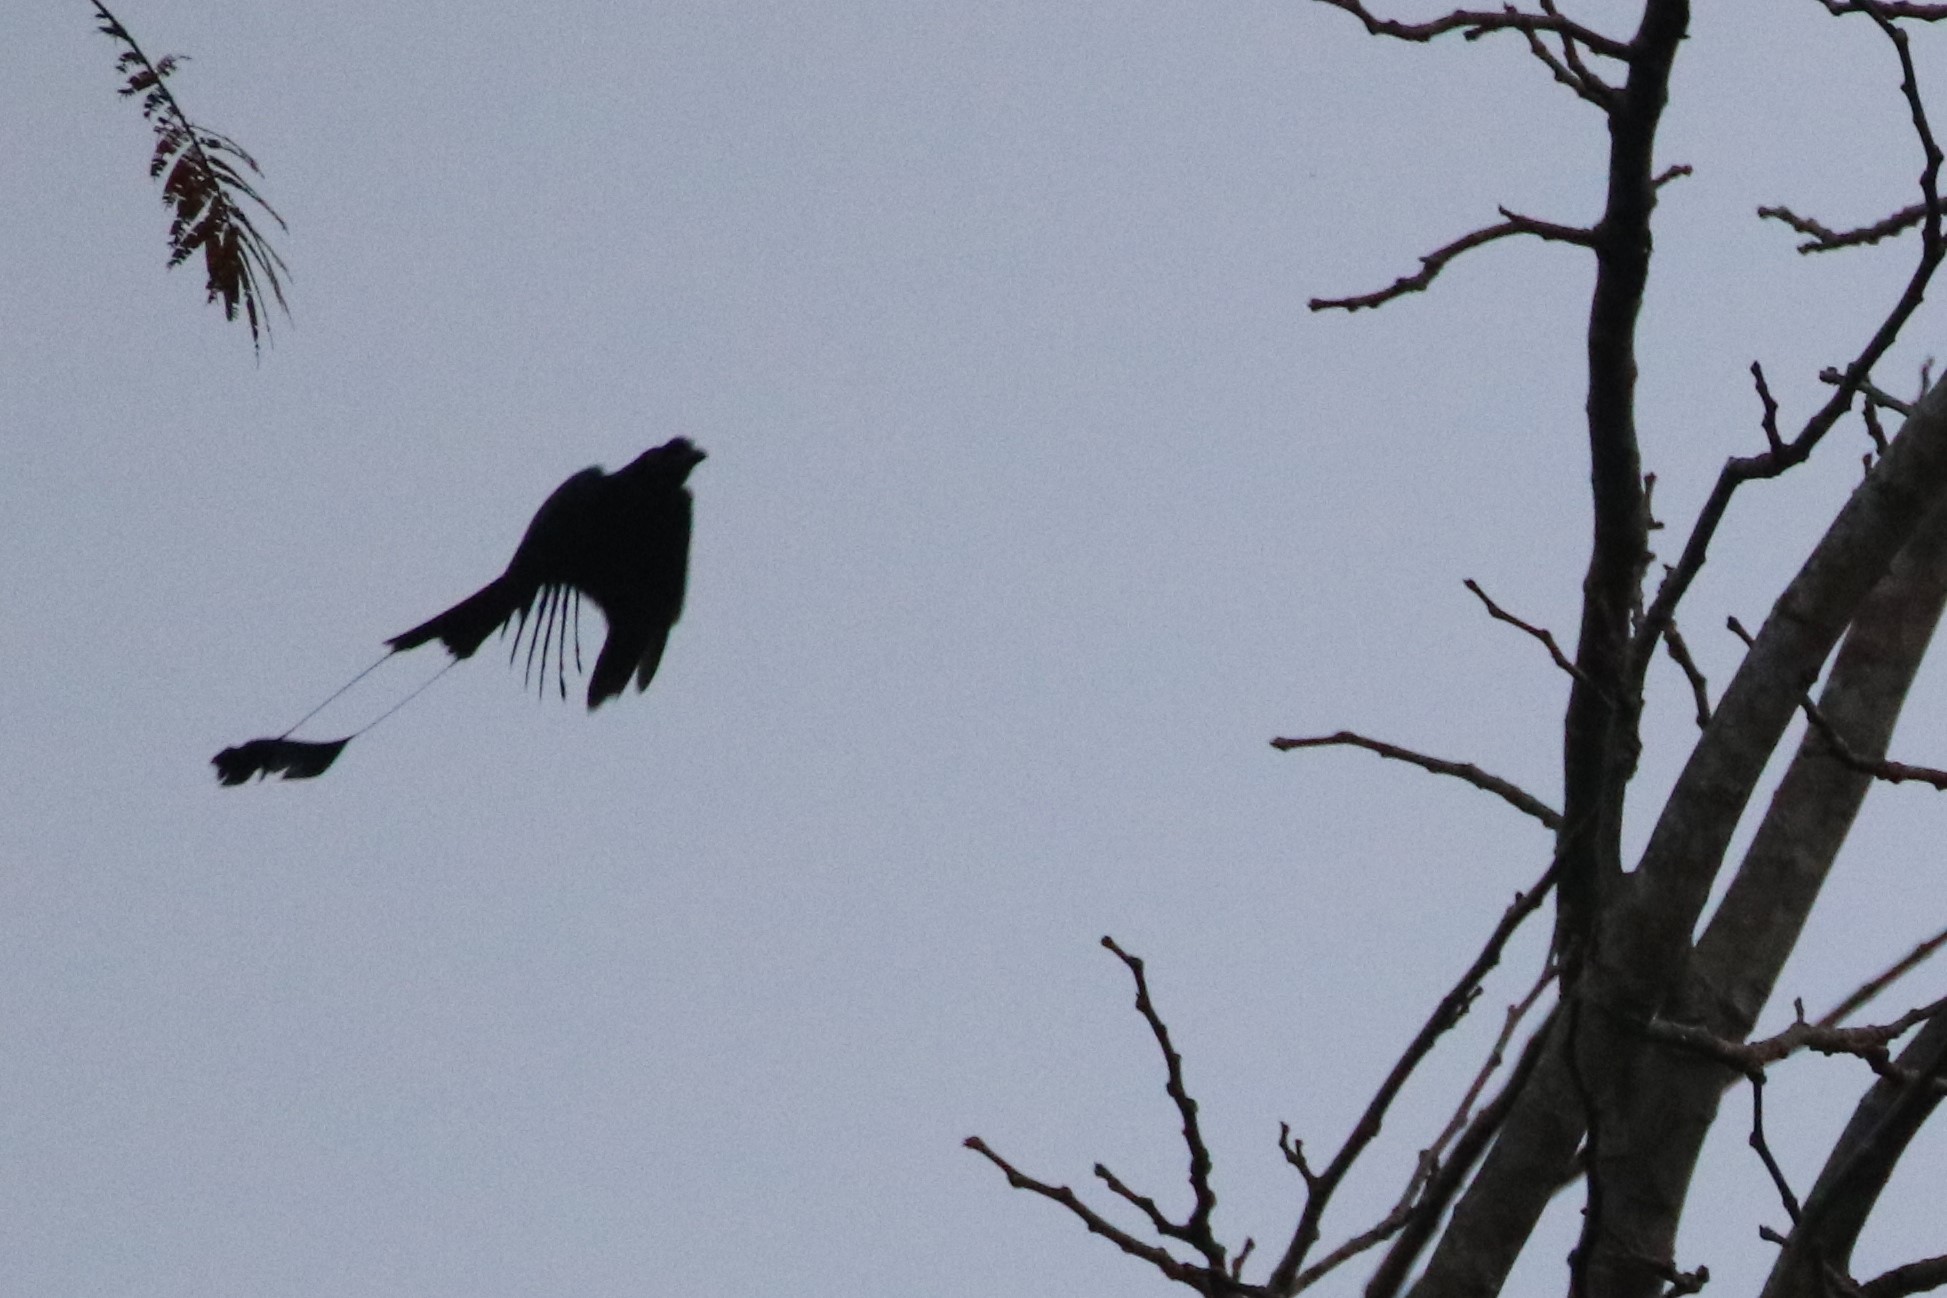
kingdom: Animalia
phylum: Chordata
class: Aves
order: Passeriformes
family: Dicruridae
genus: Dicrurus
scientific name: Dicrurus paradiseus
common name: Greater racket-tailed drongo
